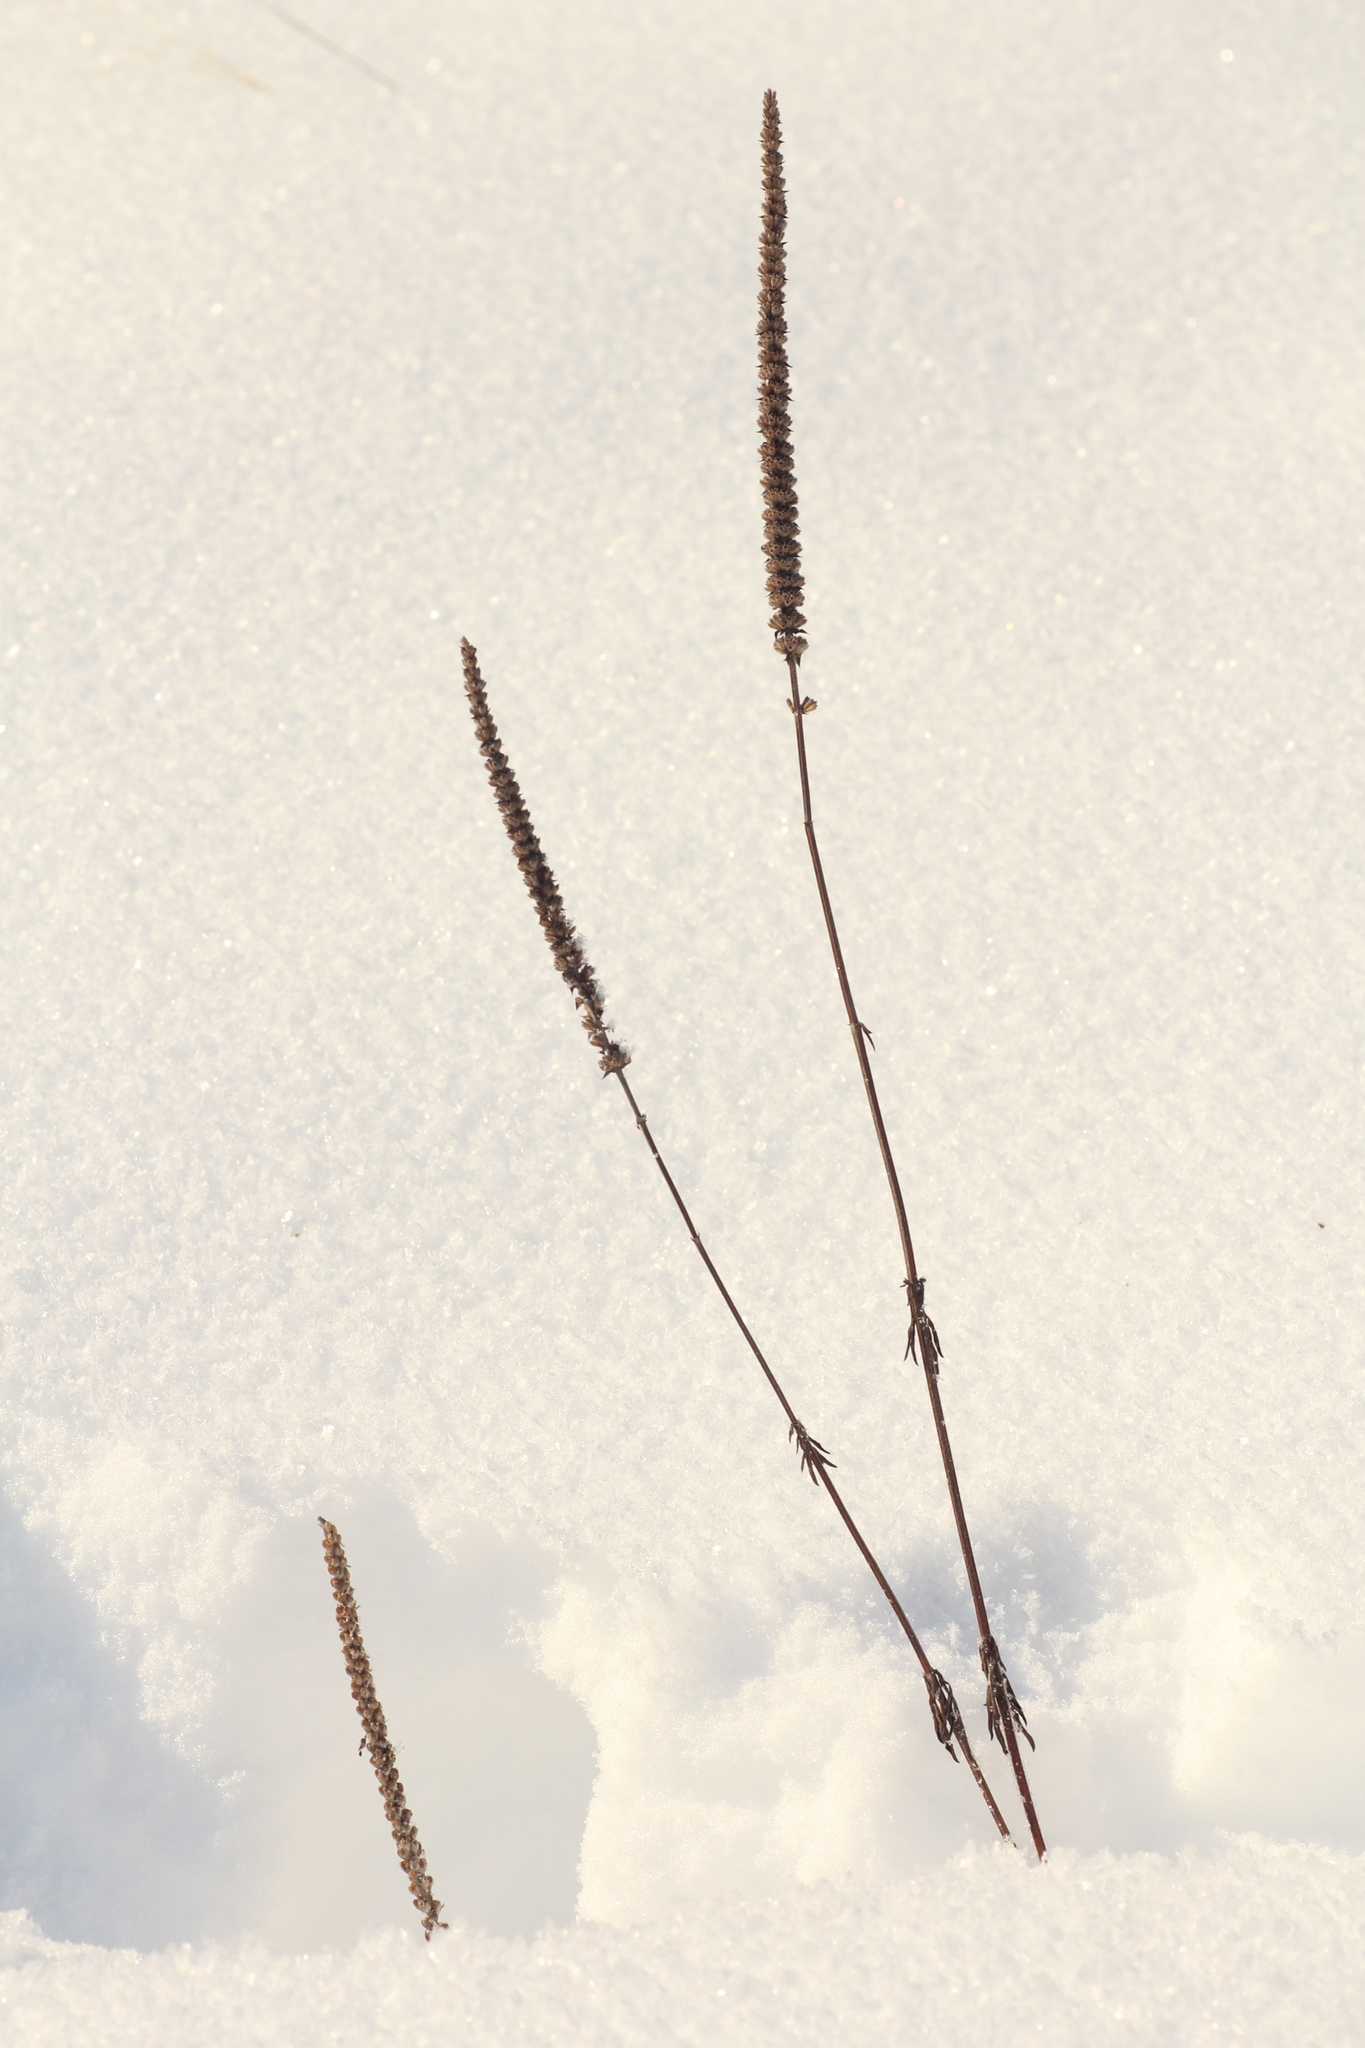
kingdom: Plantae
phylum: Tracheophyta
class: Magnoliopsida
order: Lamiales
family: Lamiaceae
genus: Nepeta
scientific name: Nepeta multifida
